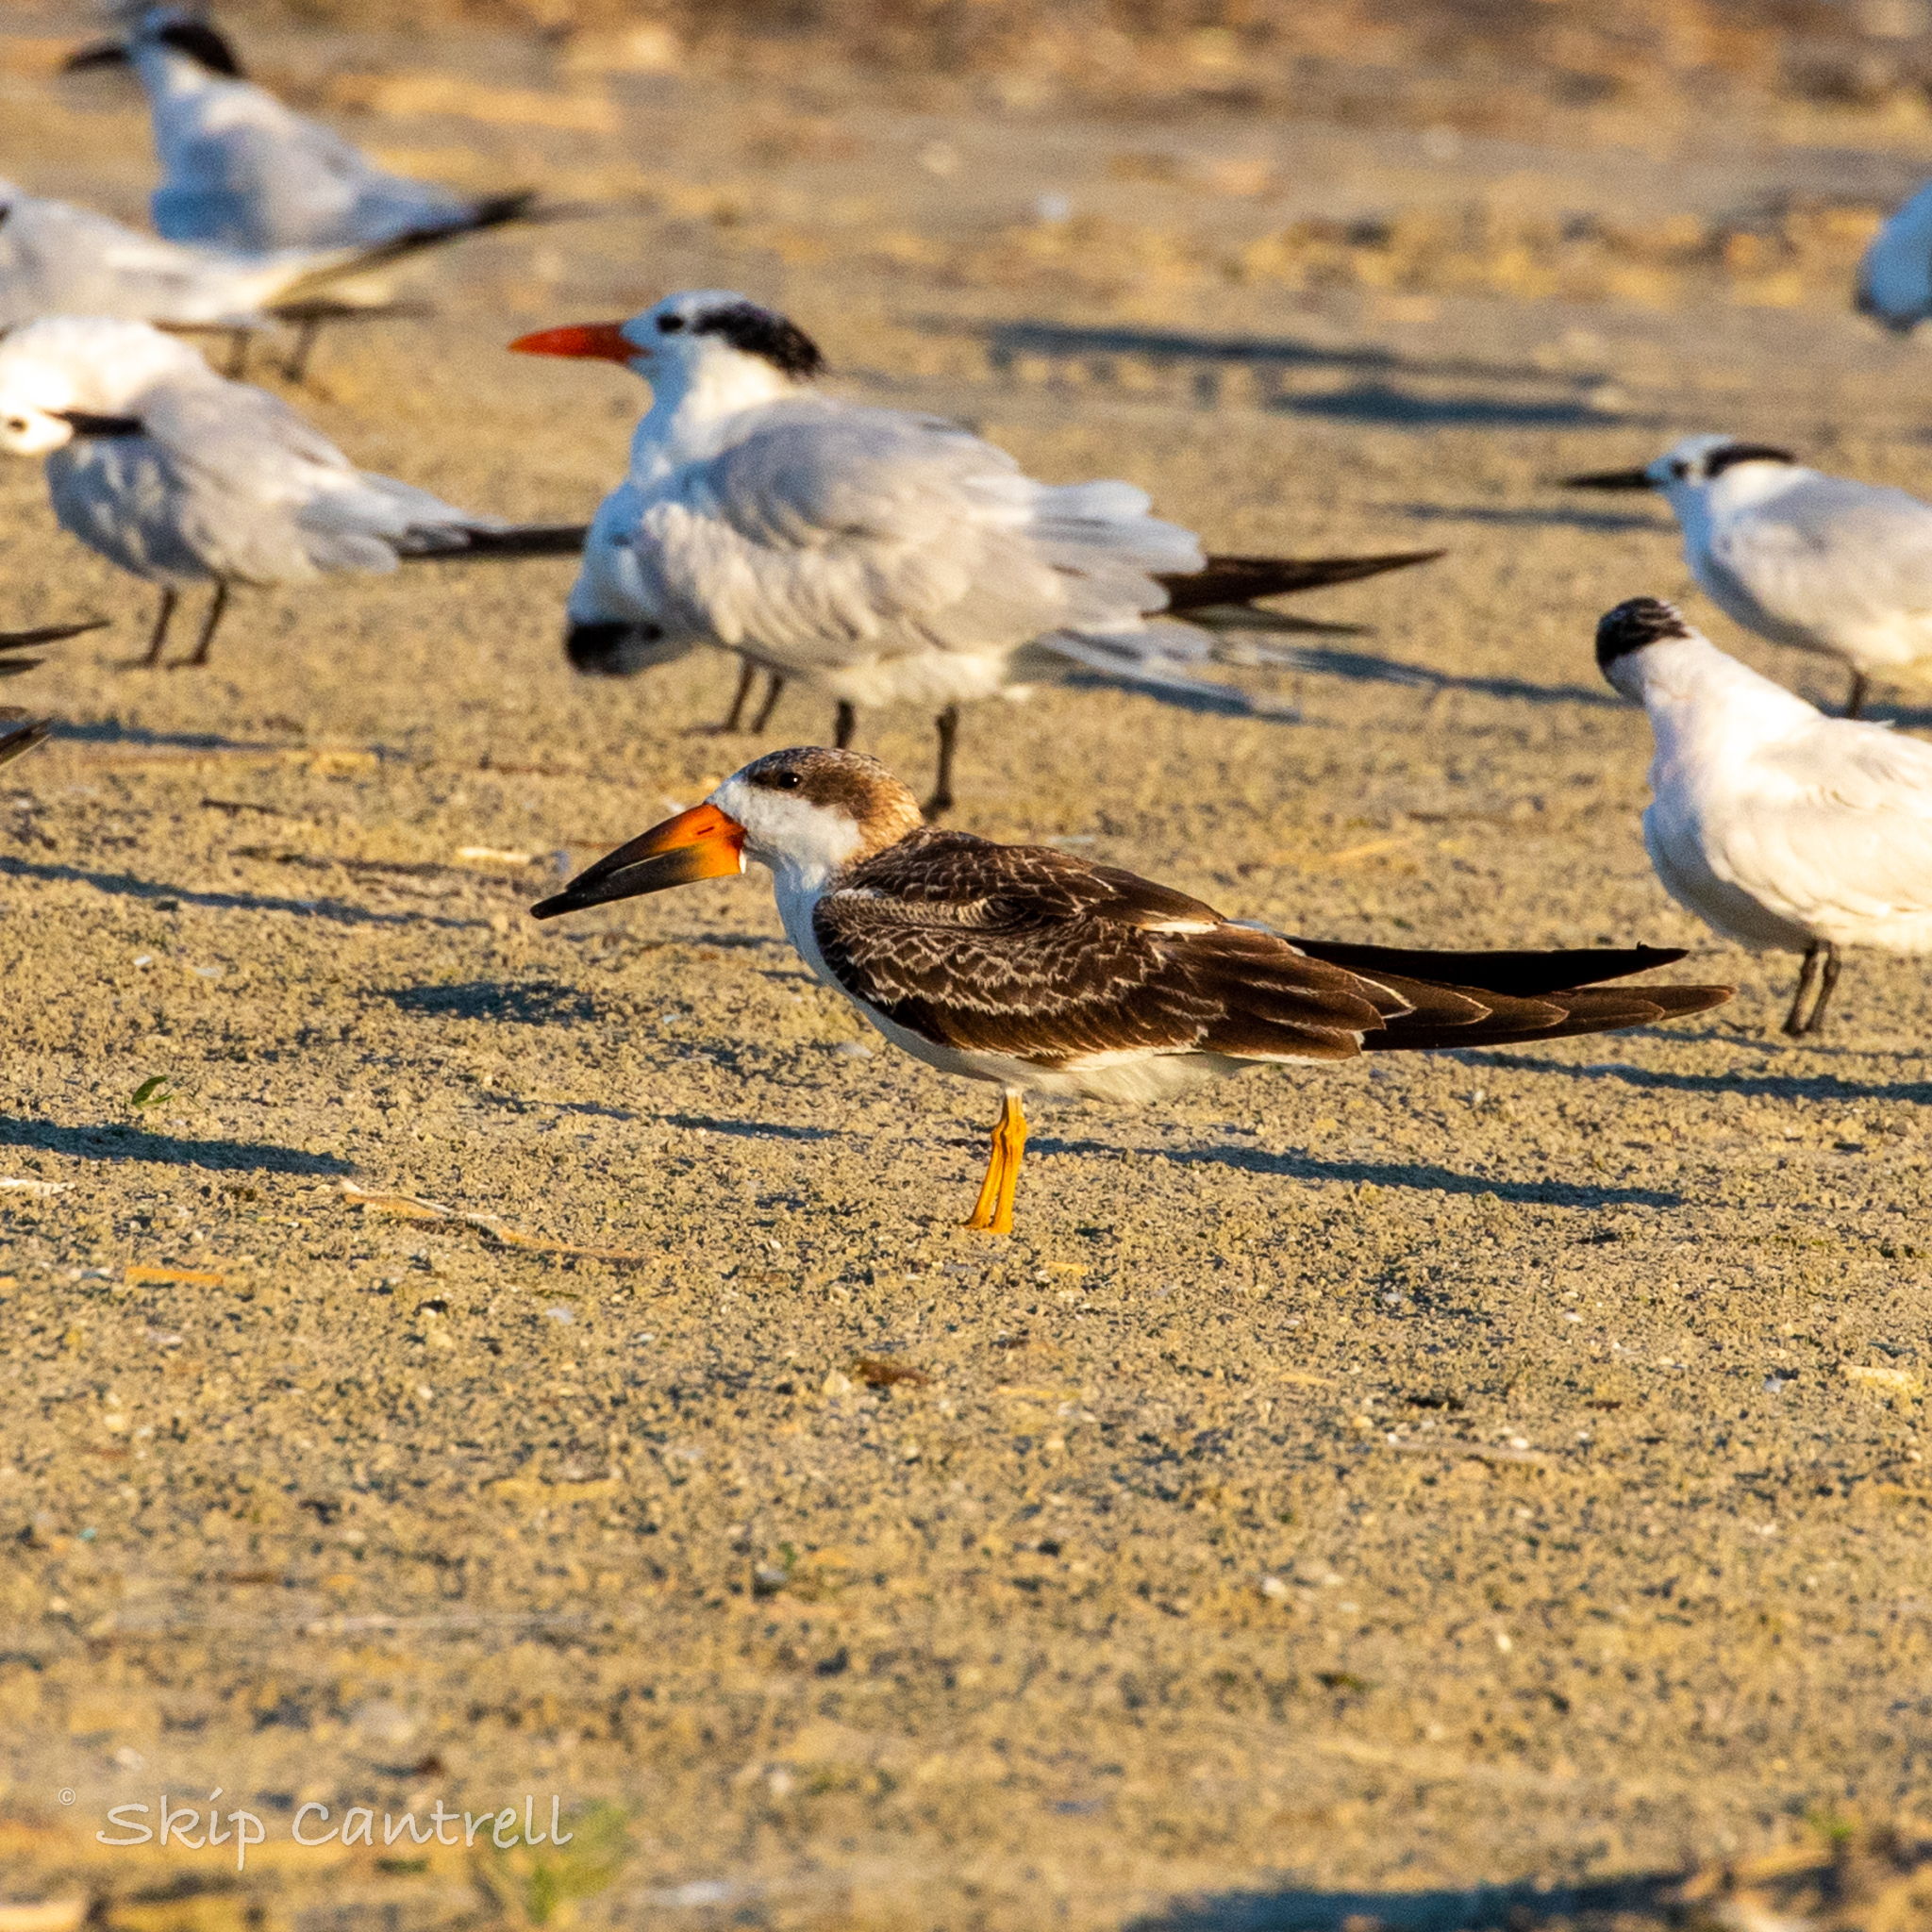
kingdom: Animalia
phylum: Chordata
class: Aves
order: Charadriiformes
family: Laridae
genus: Rynchops
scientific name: Rynchops niger
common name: Black skimmer
